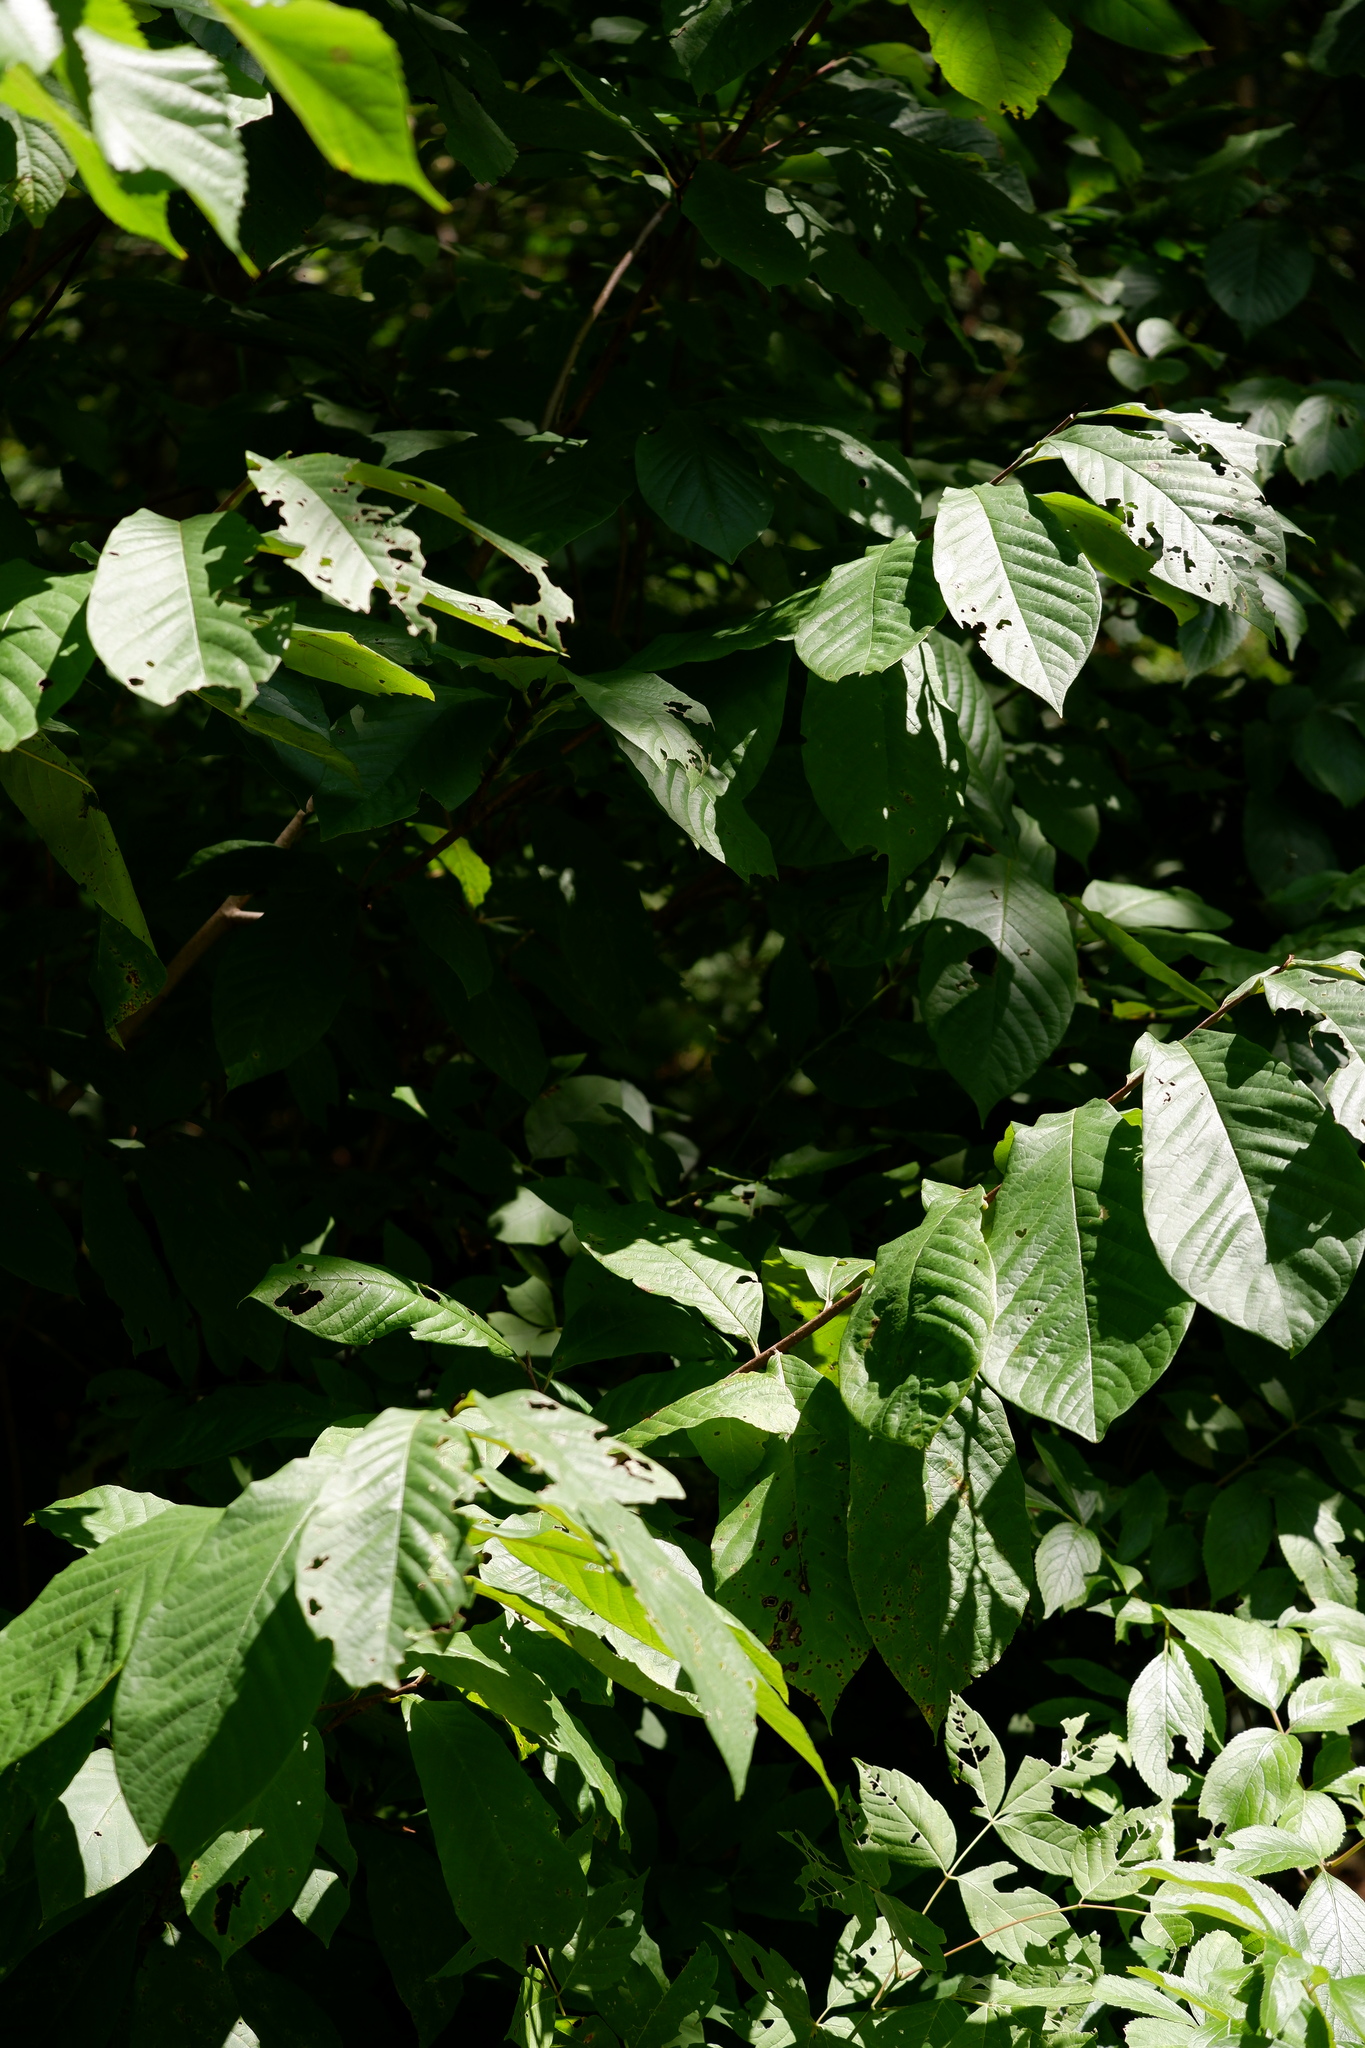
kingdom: Plantae
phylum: Tracheophyta
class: Magnoliopsida
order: Magnoliales
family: Annonaceae
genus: Asimina
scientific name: Asimina triloba
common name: Dog-banana
